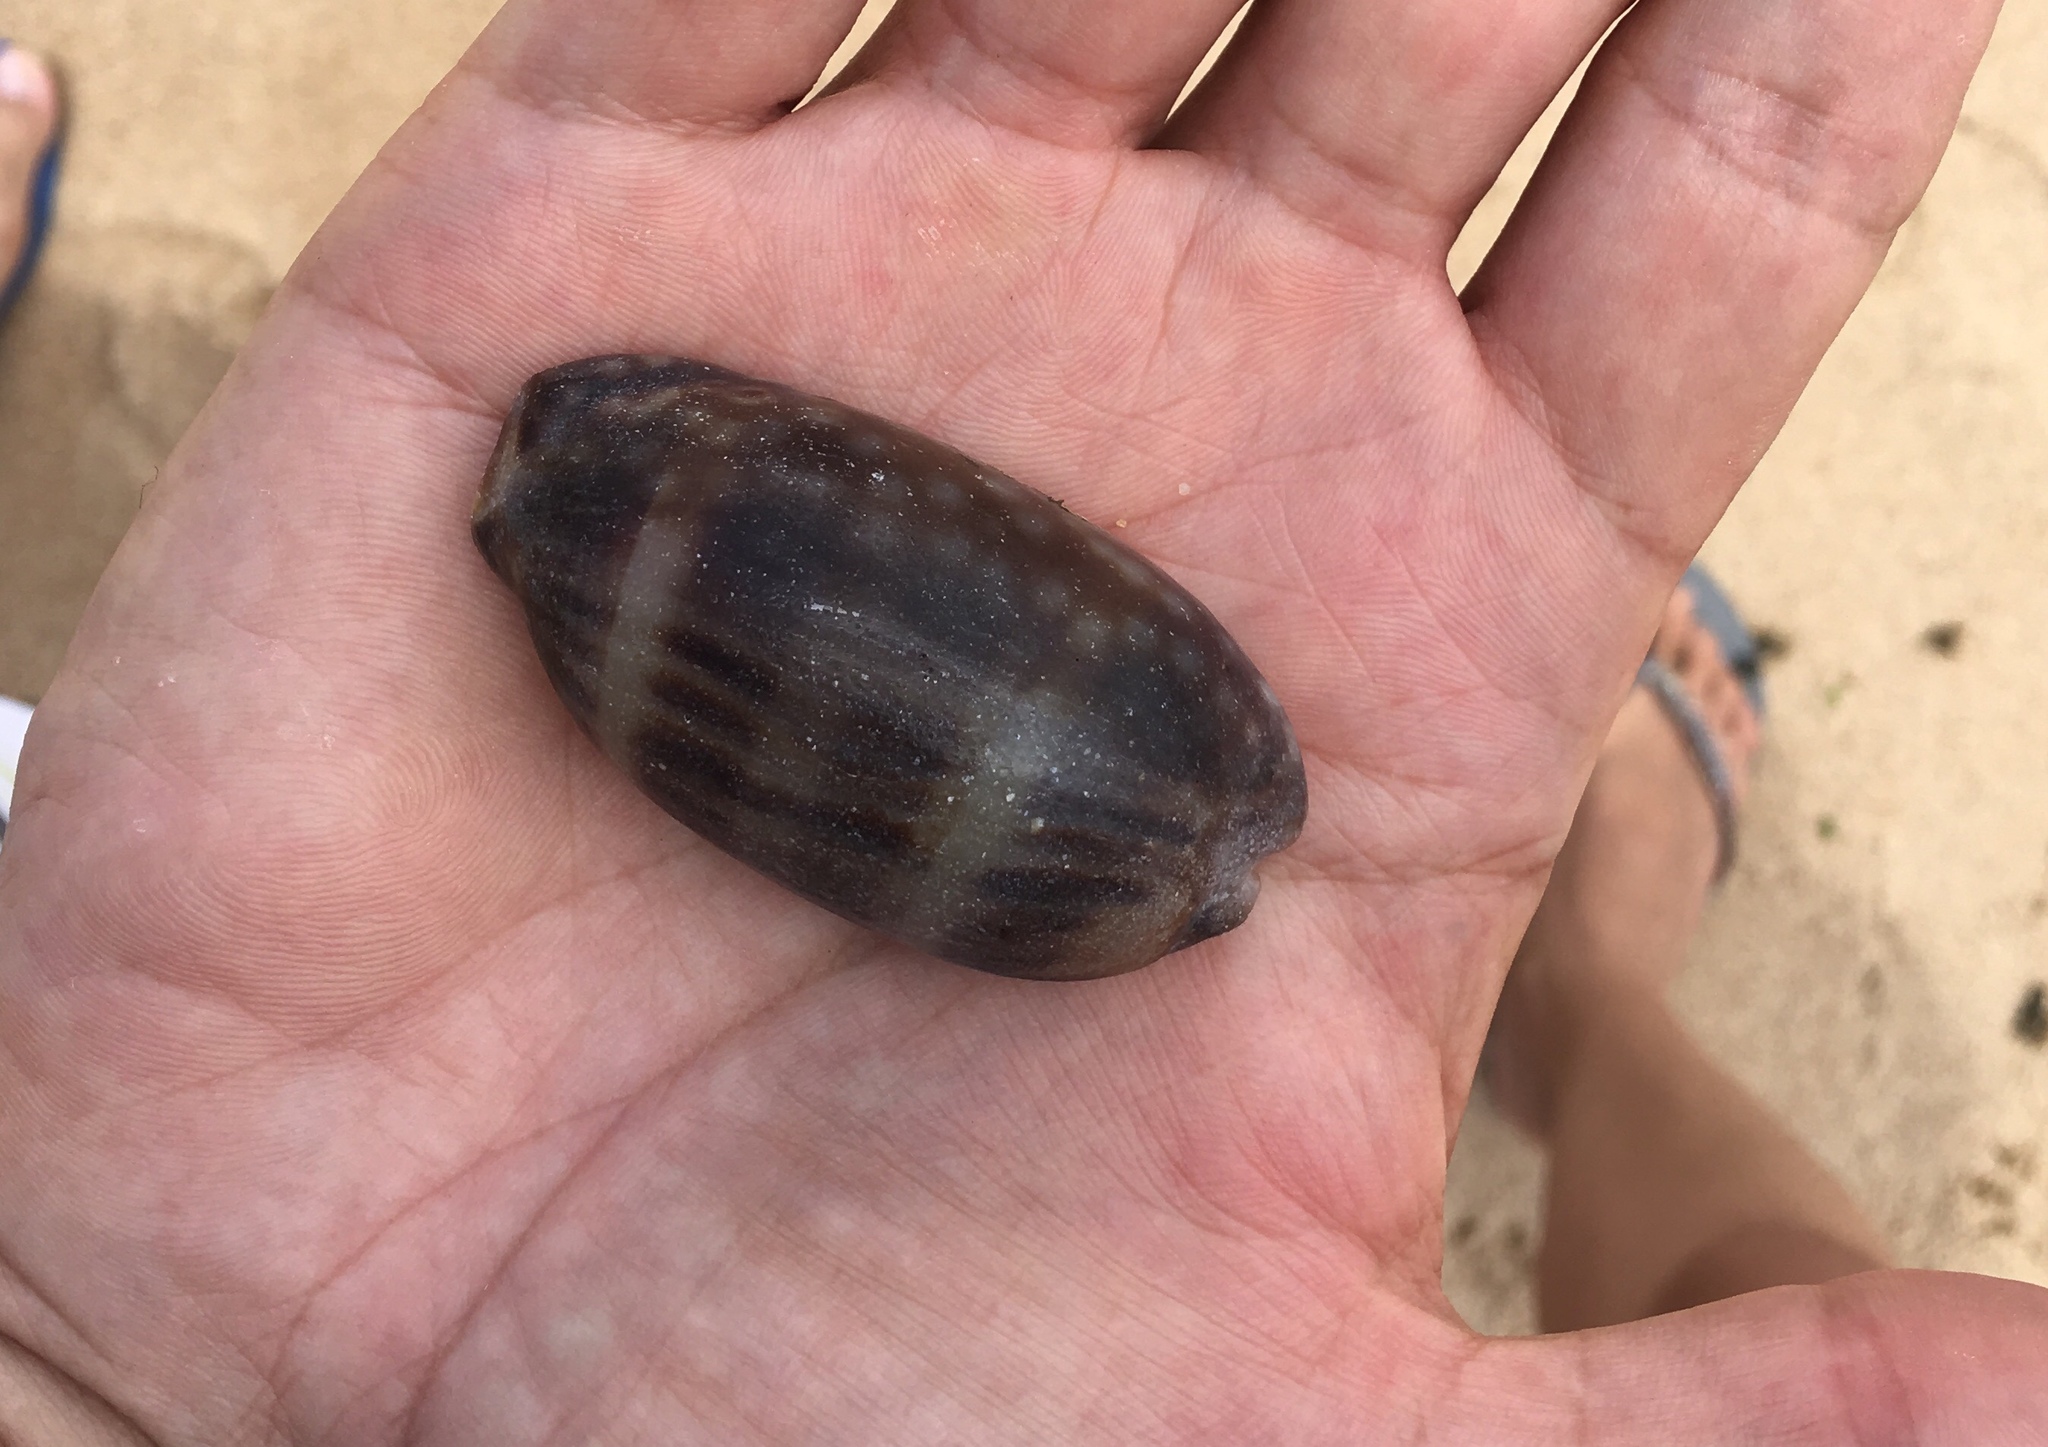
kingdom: Animalia
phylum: Mollusca
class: Gastropoda
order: Littorinimorpha
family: Cypraeidae
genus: Macrocypraea
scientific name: Macrocypraea zebra
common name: Measled cowrie
